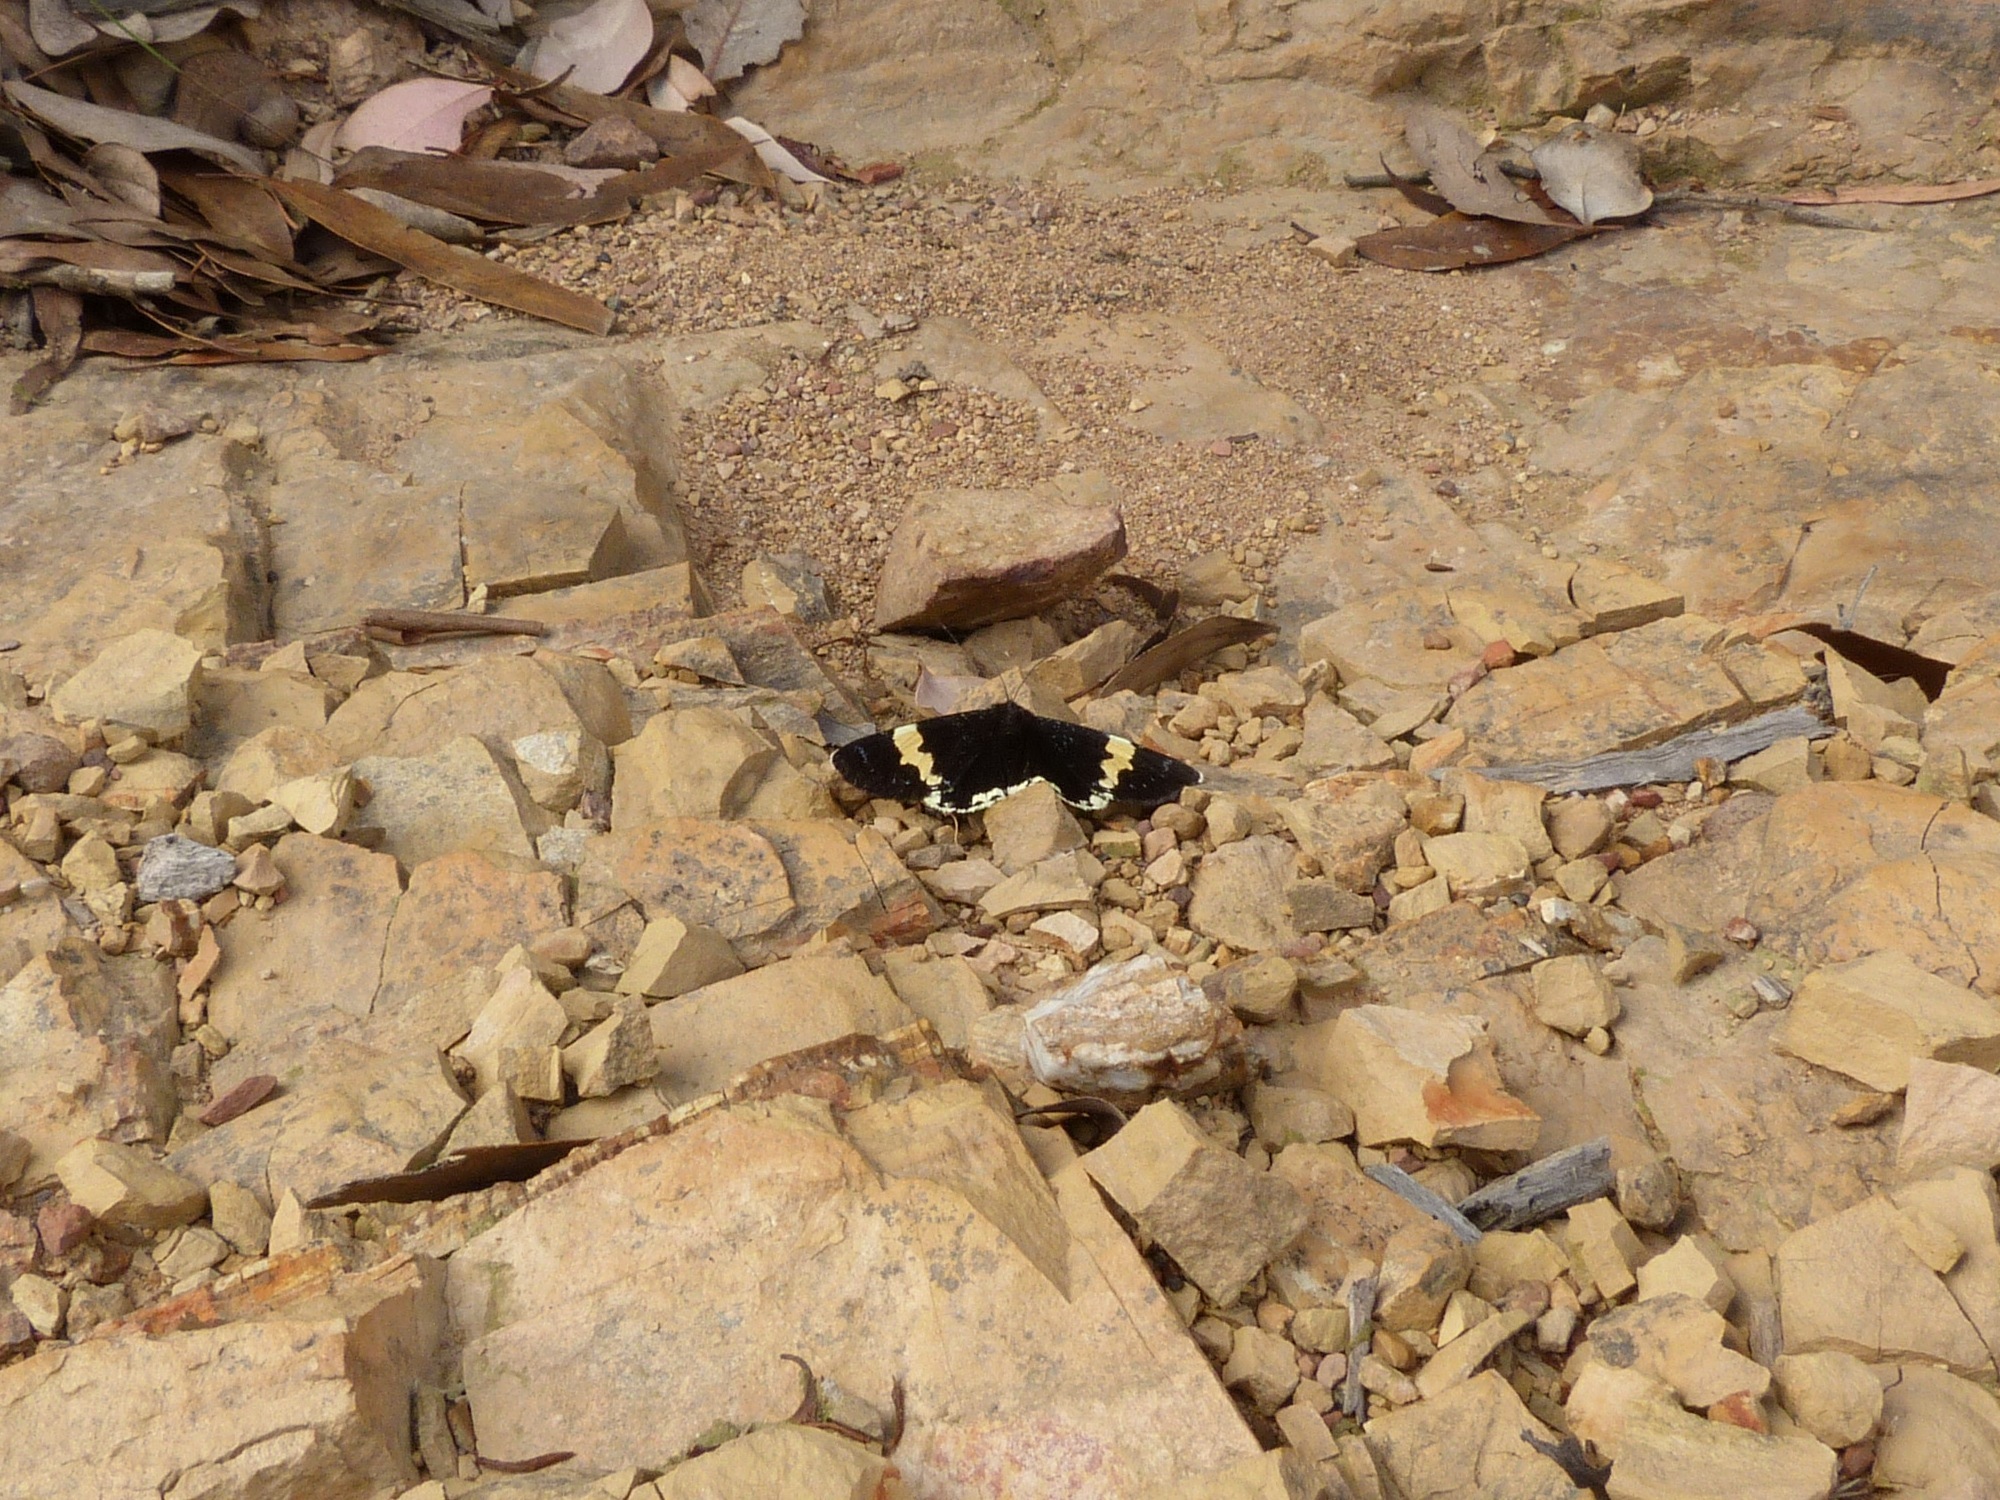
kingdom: Animalia
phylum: Arthropoda
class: Insecta
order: Lepidoptera
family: Noctuidae
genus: Eutrichopidia
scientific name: Eutrichopidia latinus
